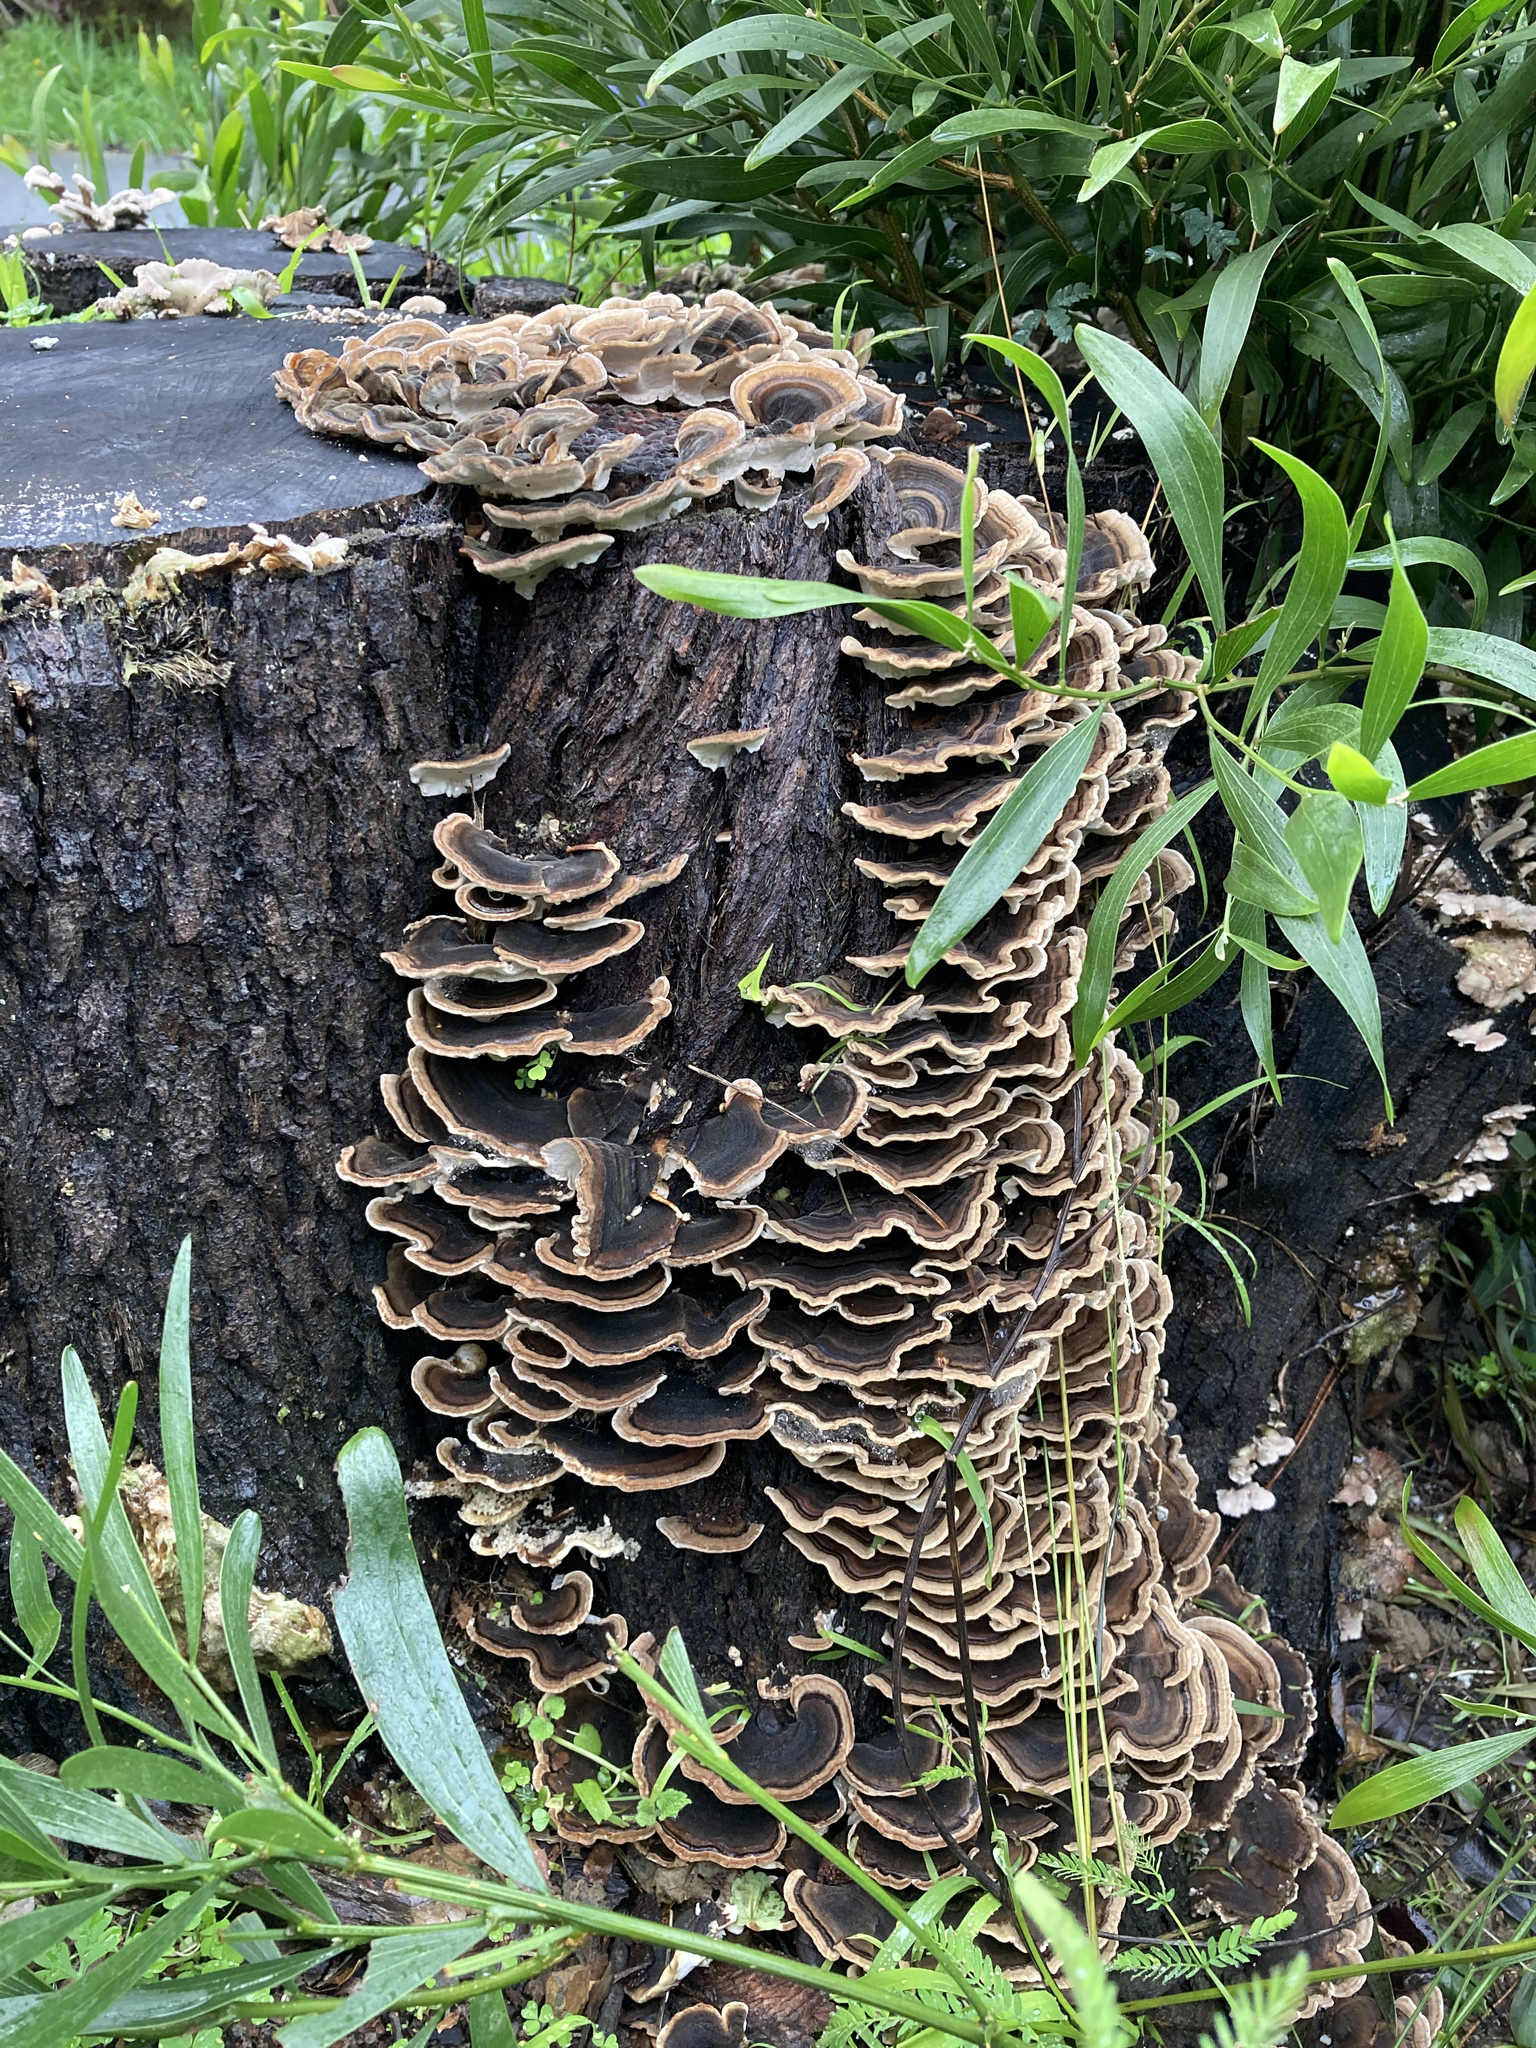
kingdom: Fungi
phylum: Basidiomycota
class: Agaricomycetes
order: Polyporales
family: Polyporaceae
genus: Trametes
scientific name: Trametes versicolor
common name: Turkeytail
